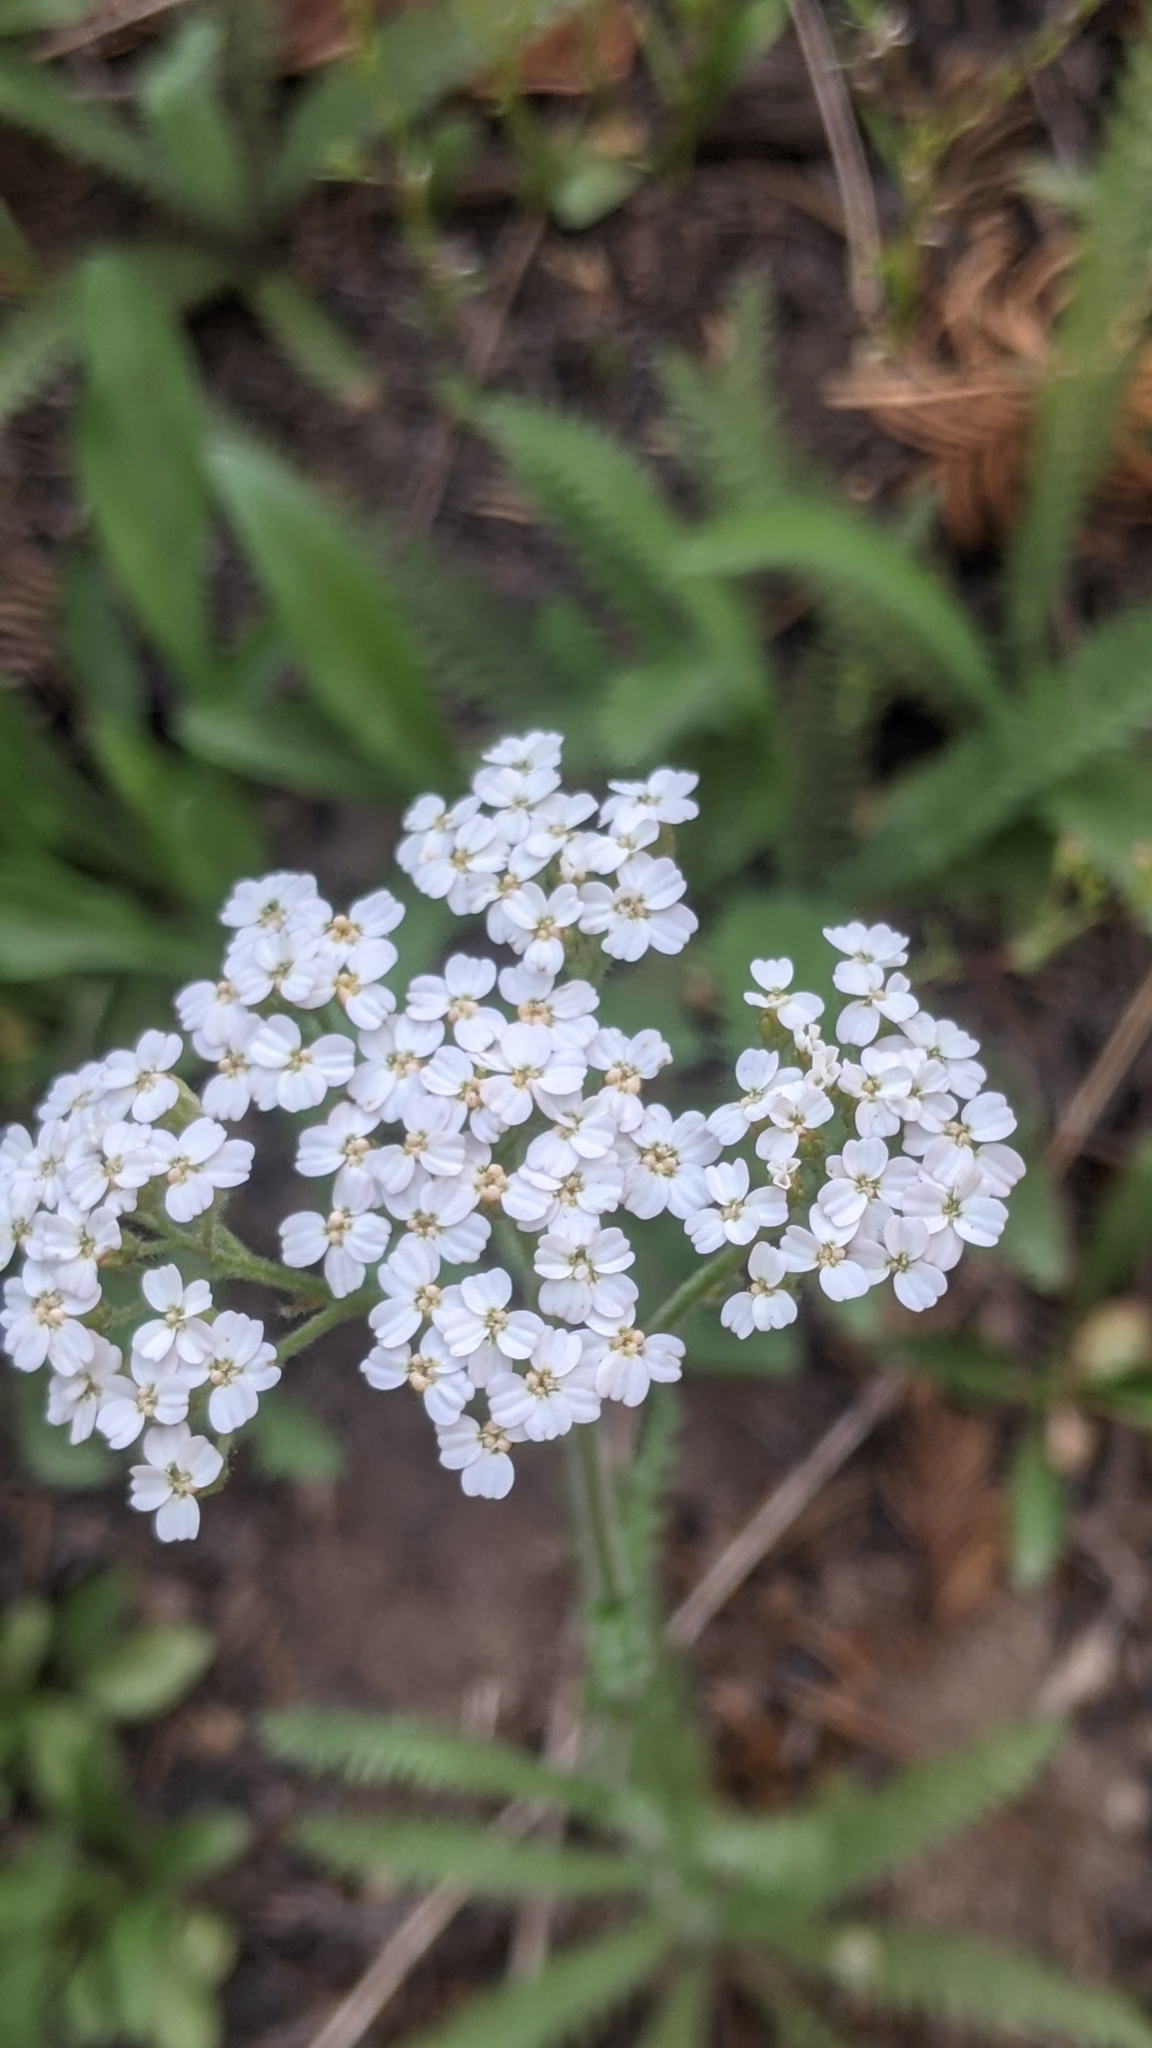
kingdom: Plantae
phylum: Tracheophyta
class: Magnoliopsida
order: Asterales
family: Asteraceae
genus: Achillea
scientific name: Achillea millefolium
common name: Yarrow
